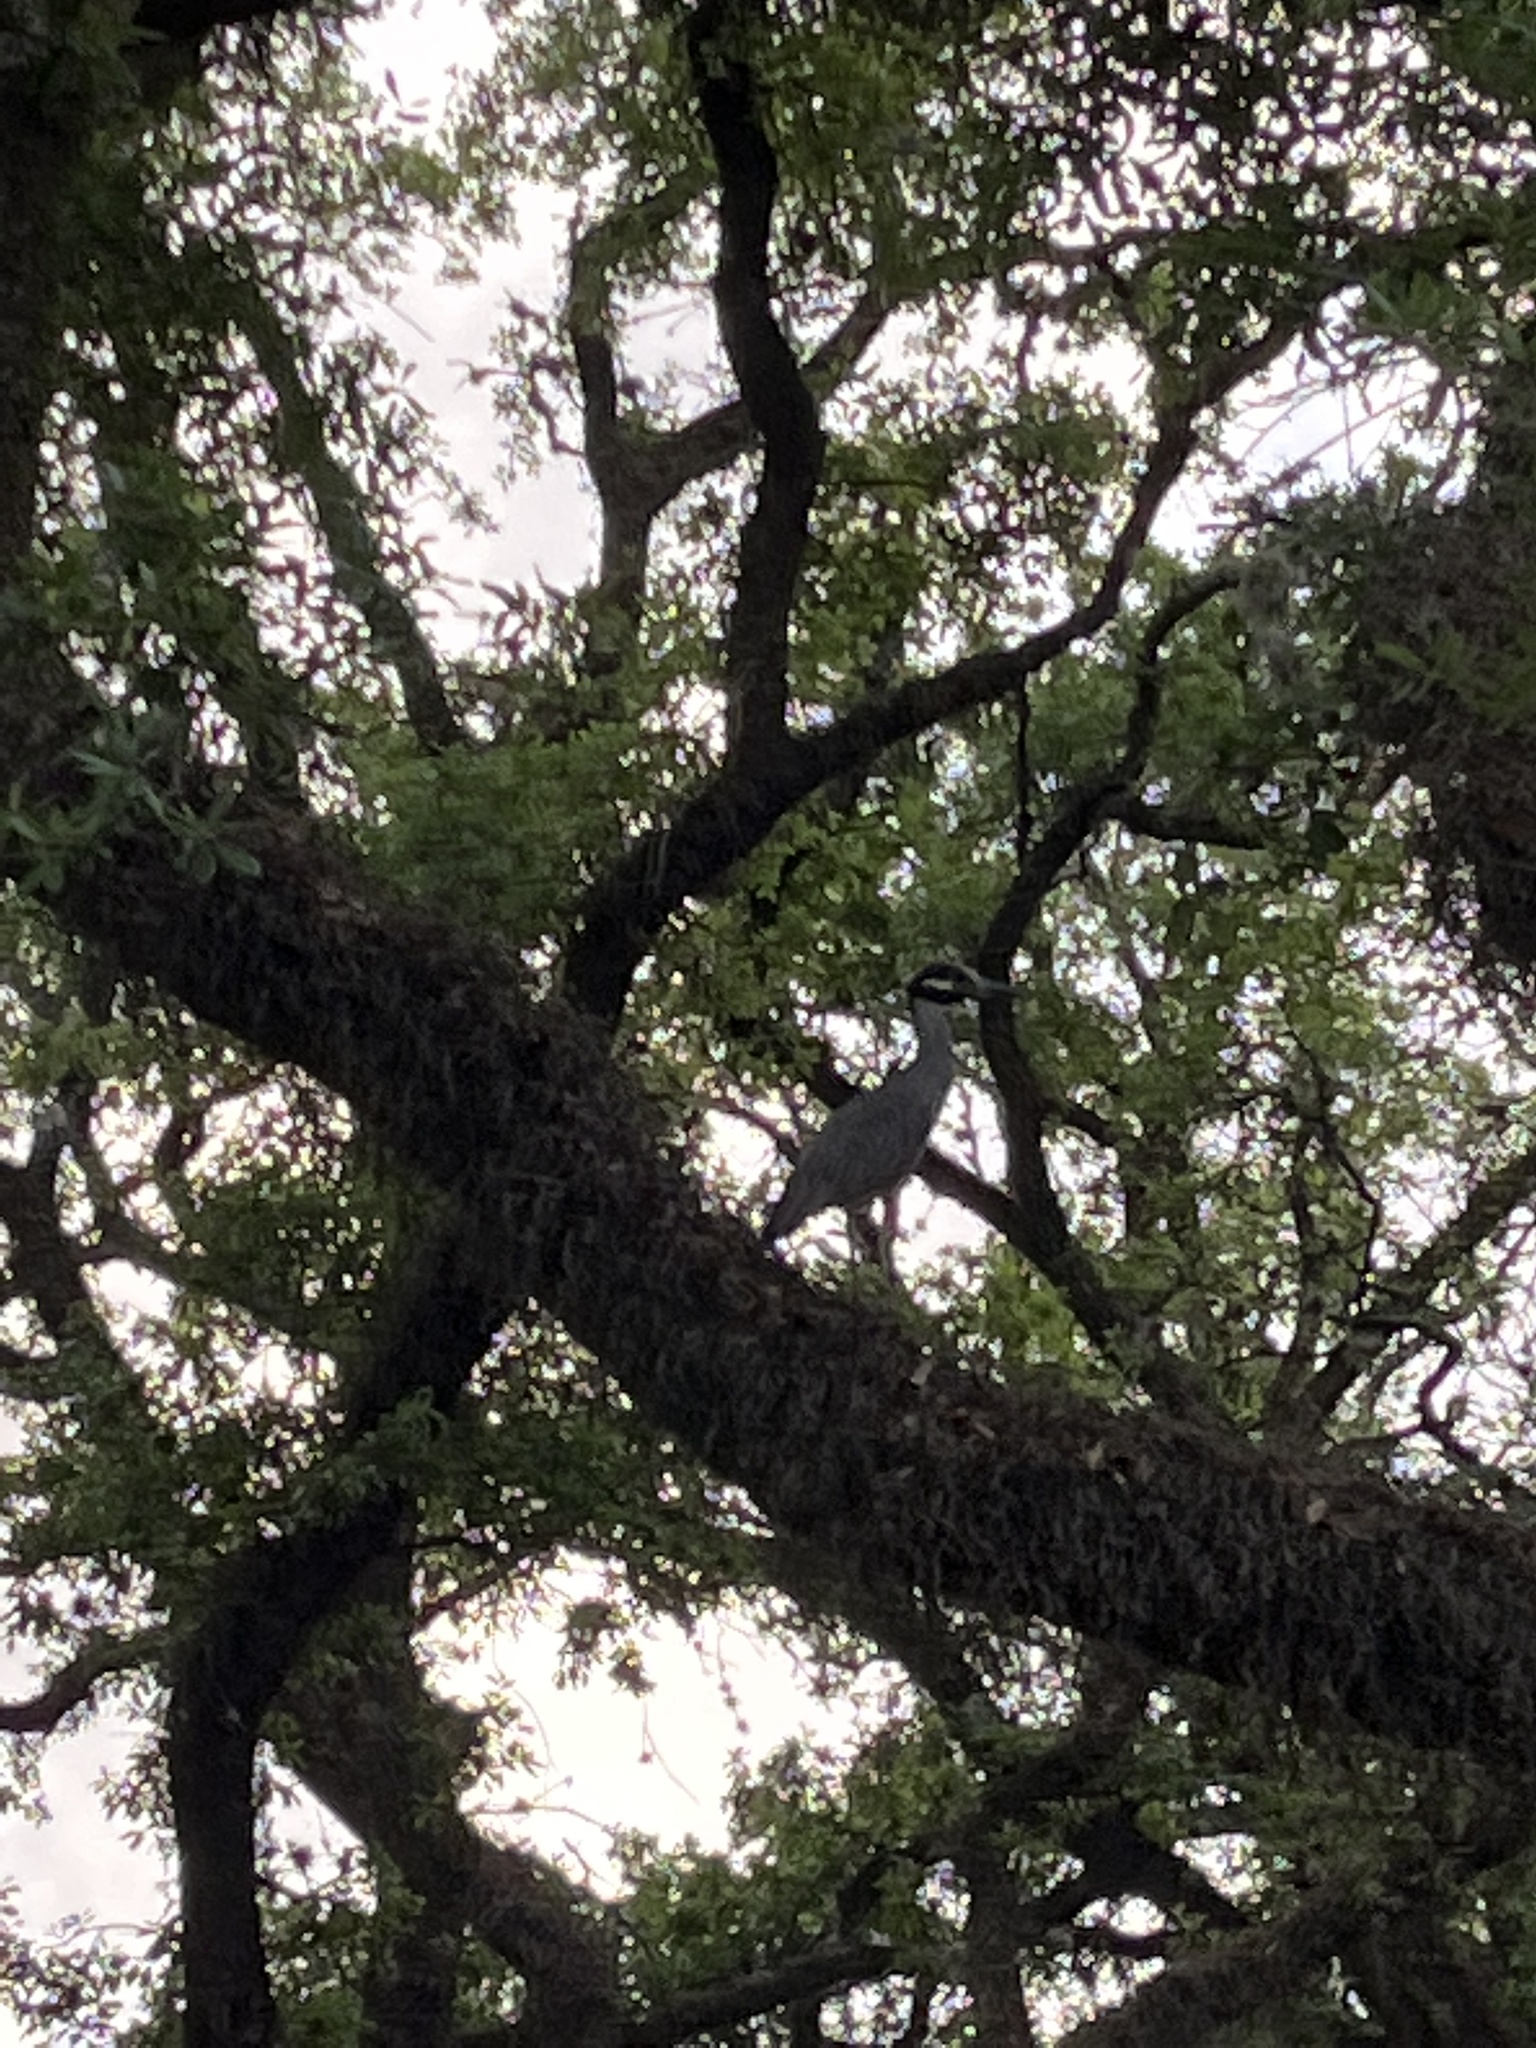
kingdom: Animalia
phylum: Chordata
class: Aves
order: Pelecaniformes
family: Ardeidae
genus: Nyctanassa
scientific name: Nyctanassa violacea
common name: Yellow-crowned night heron
